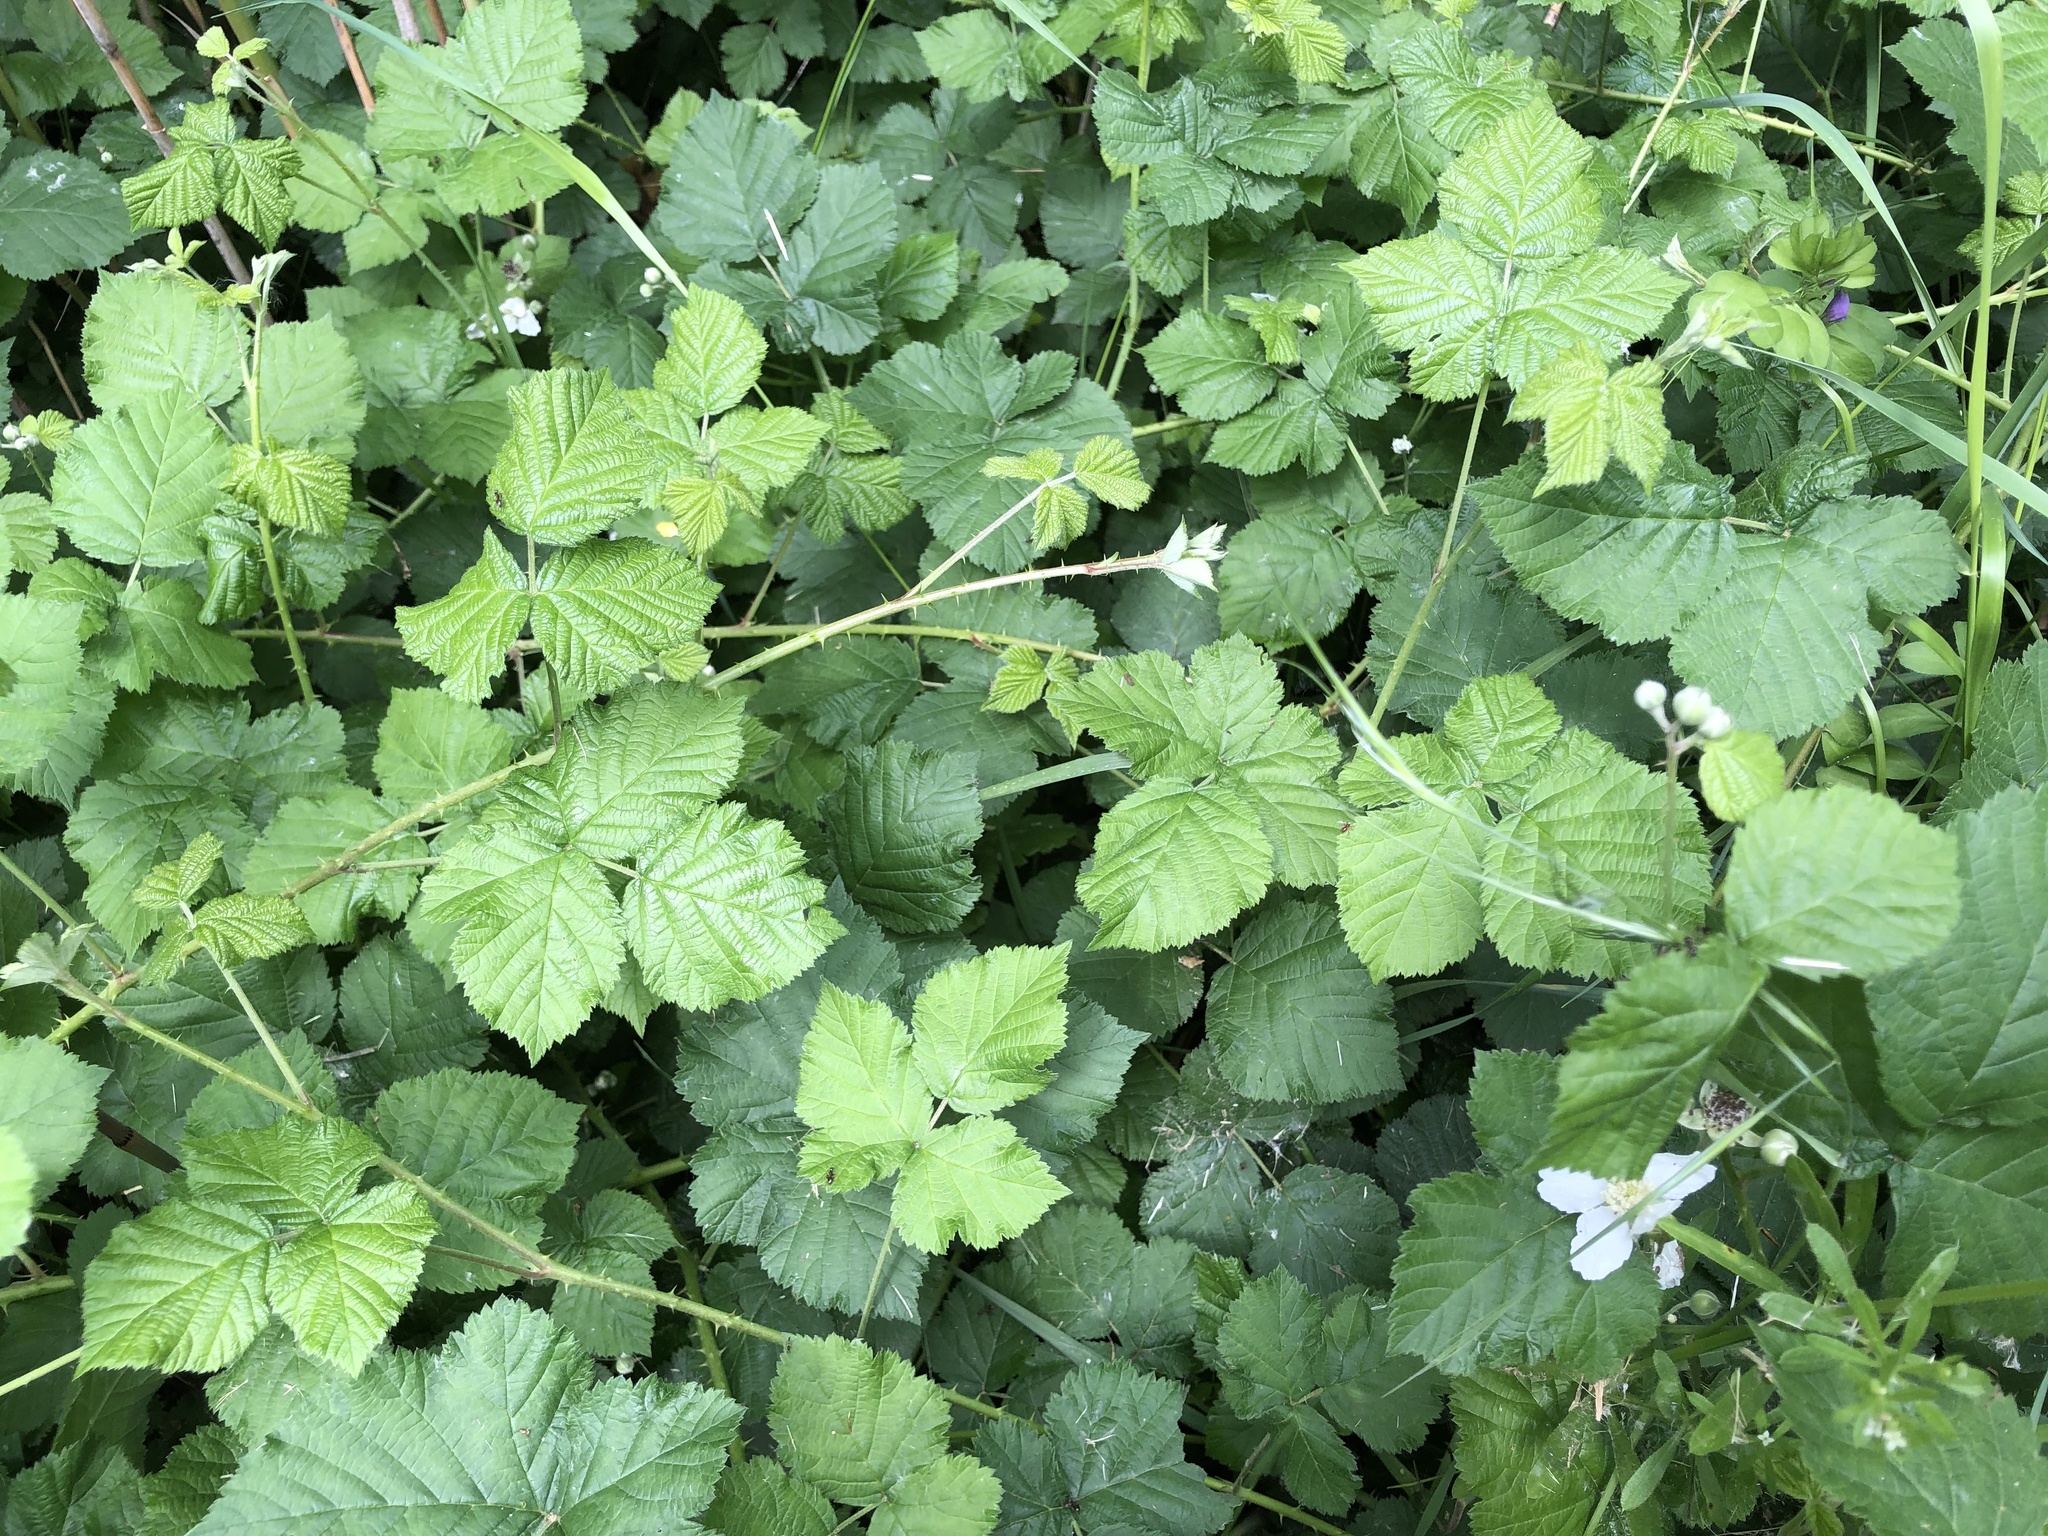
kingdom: Plantae
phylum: Tracheophyta
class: Magnoliopsida
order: Rosales
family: Rosaceae
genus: Rubus
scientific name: Rubus caesius
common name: Dewberry
